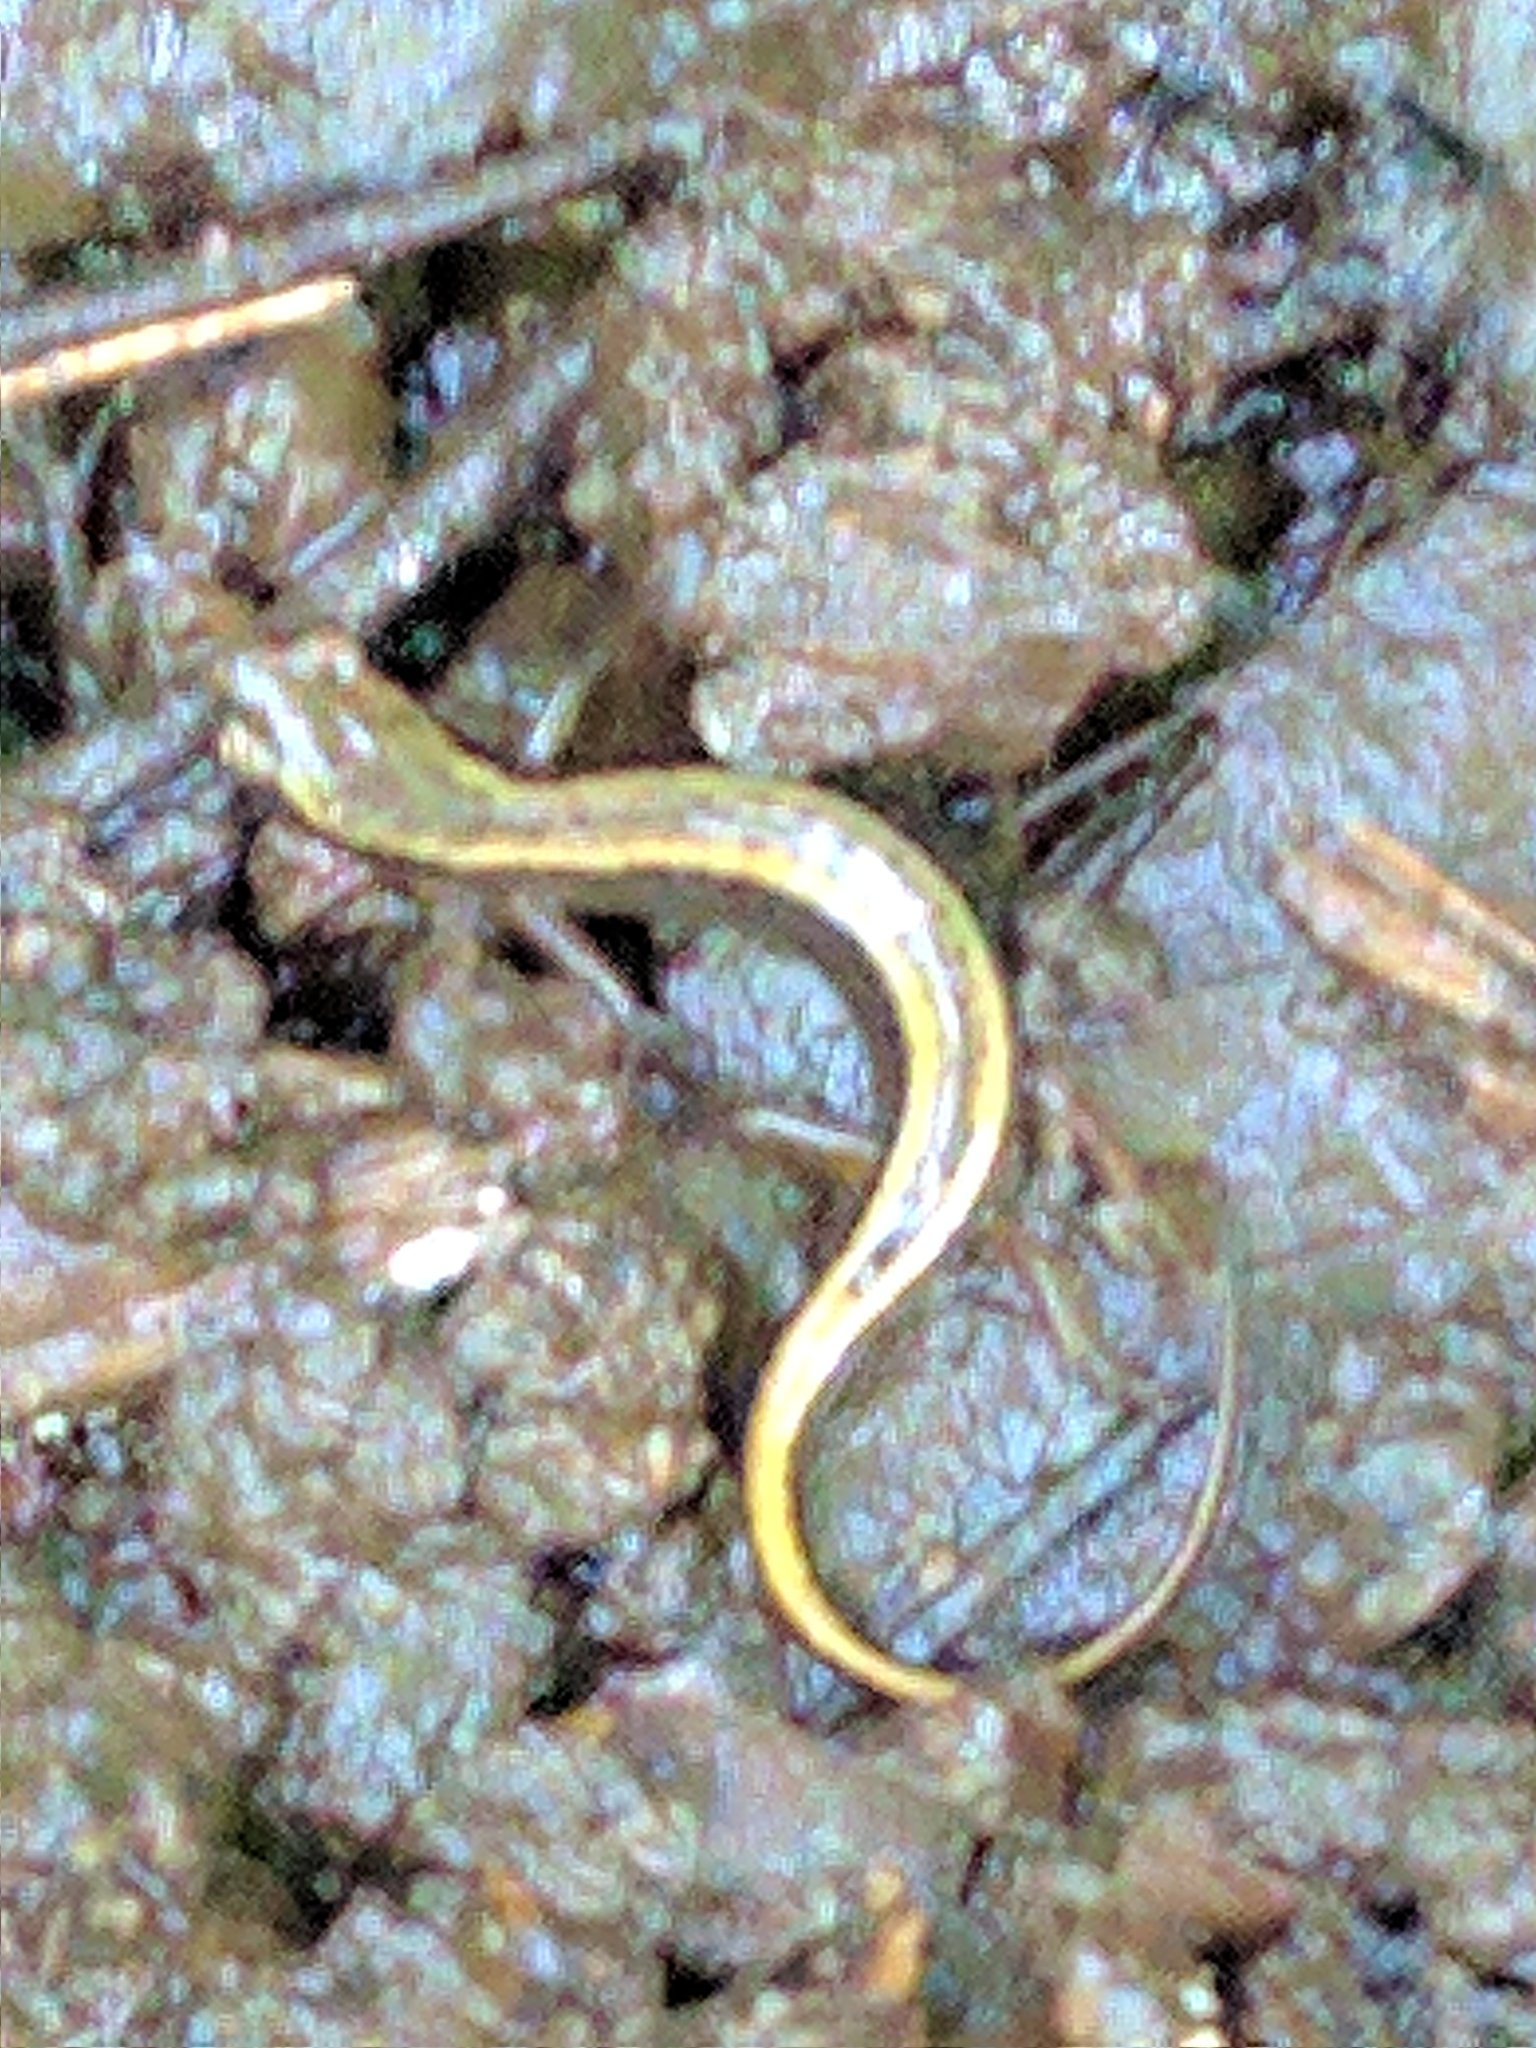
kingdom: Animalia
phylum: Chordata
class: Amphibia
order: Caudata
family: Plethodontidae
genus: Eurycea
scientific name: Eurycea bislineata
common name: Northern two-lined salamander
